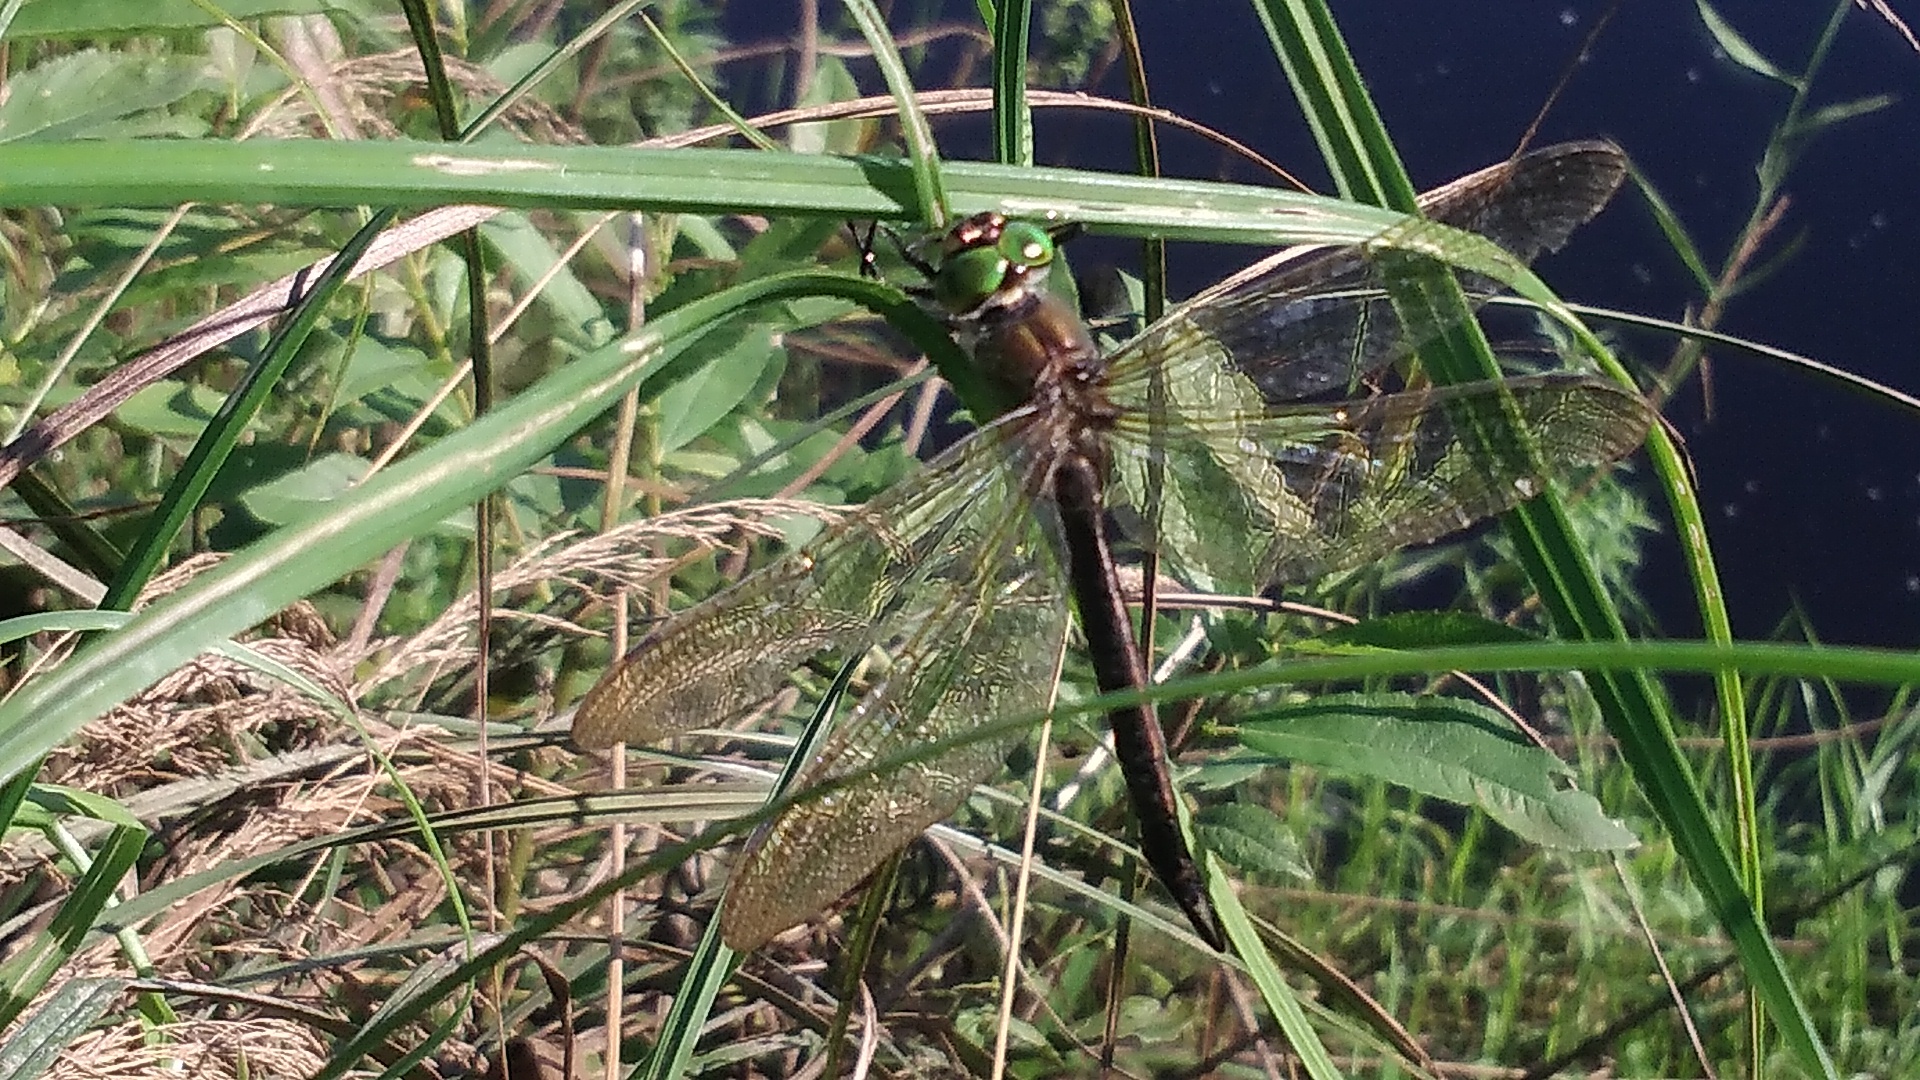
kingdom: Animalia
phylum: Arthropoda
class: Insecta
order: Odonata
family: Corduliidae
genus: Somatochlora
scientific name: Somatochlora metallica
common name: Brilliant emerald
